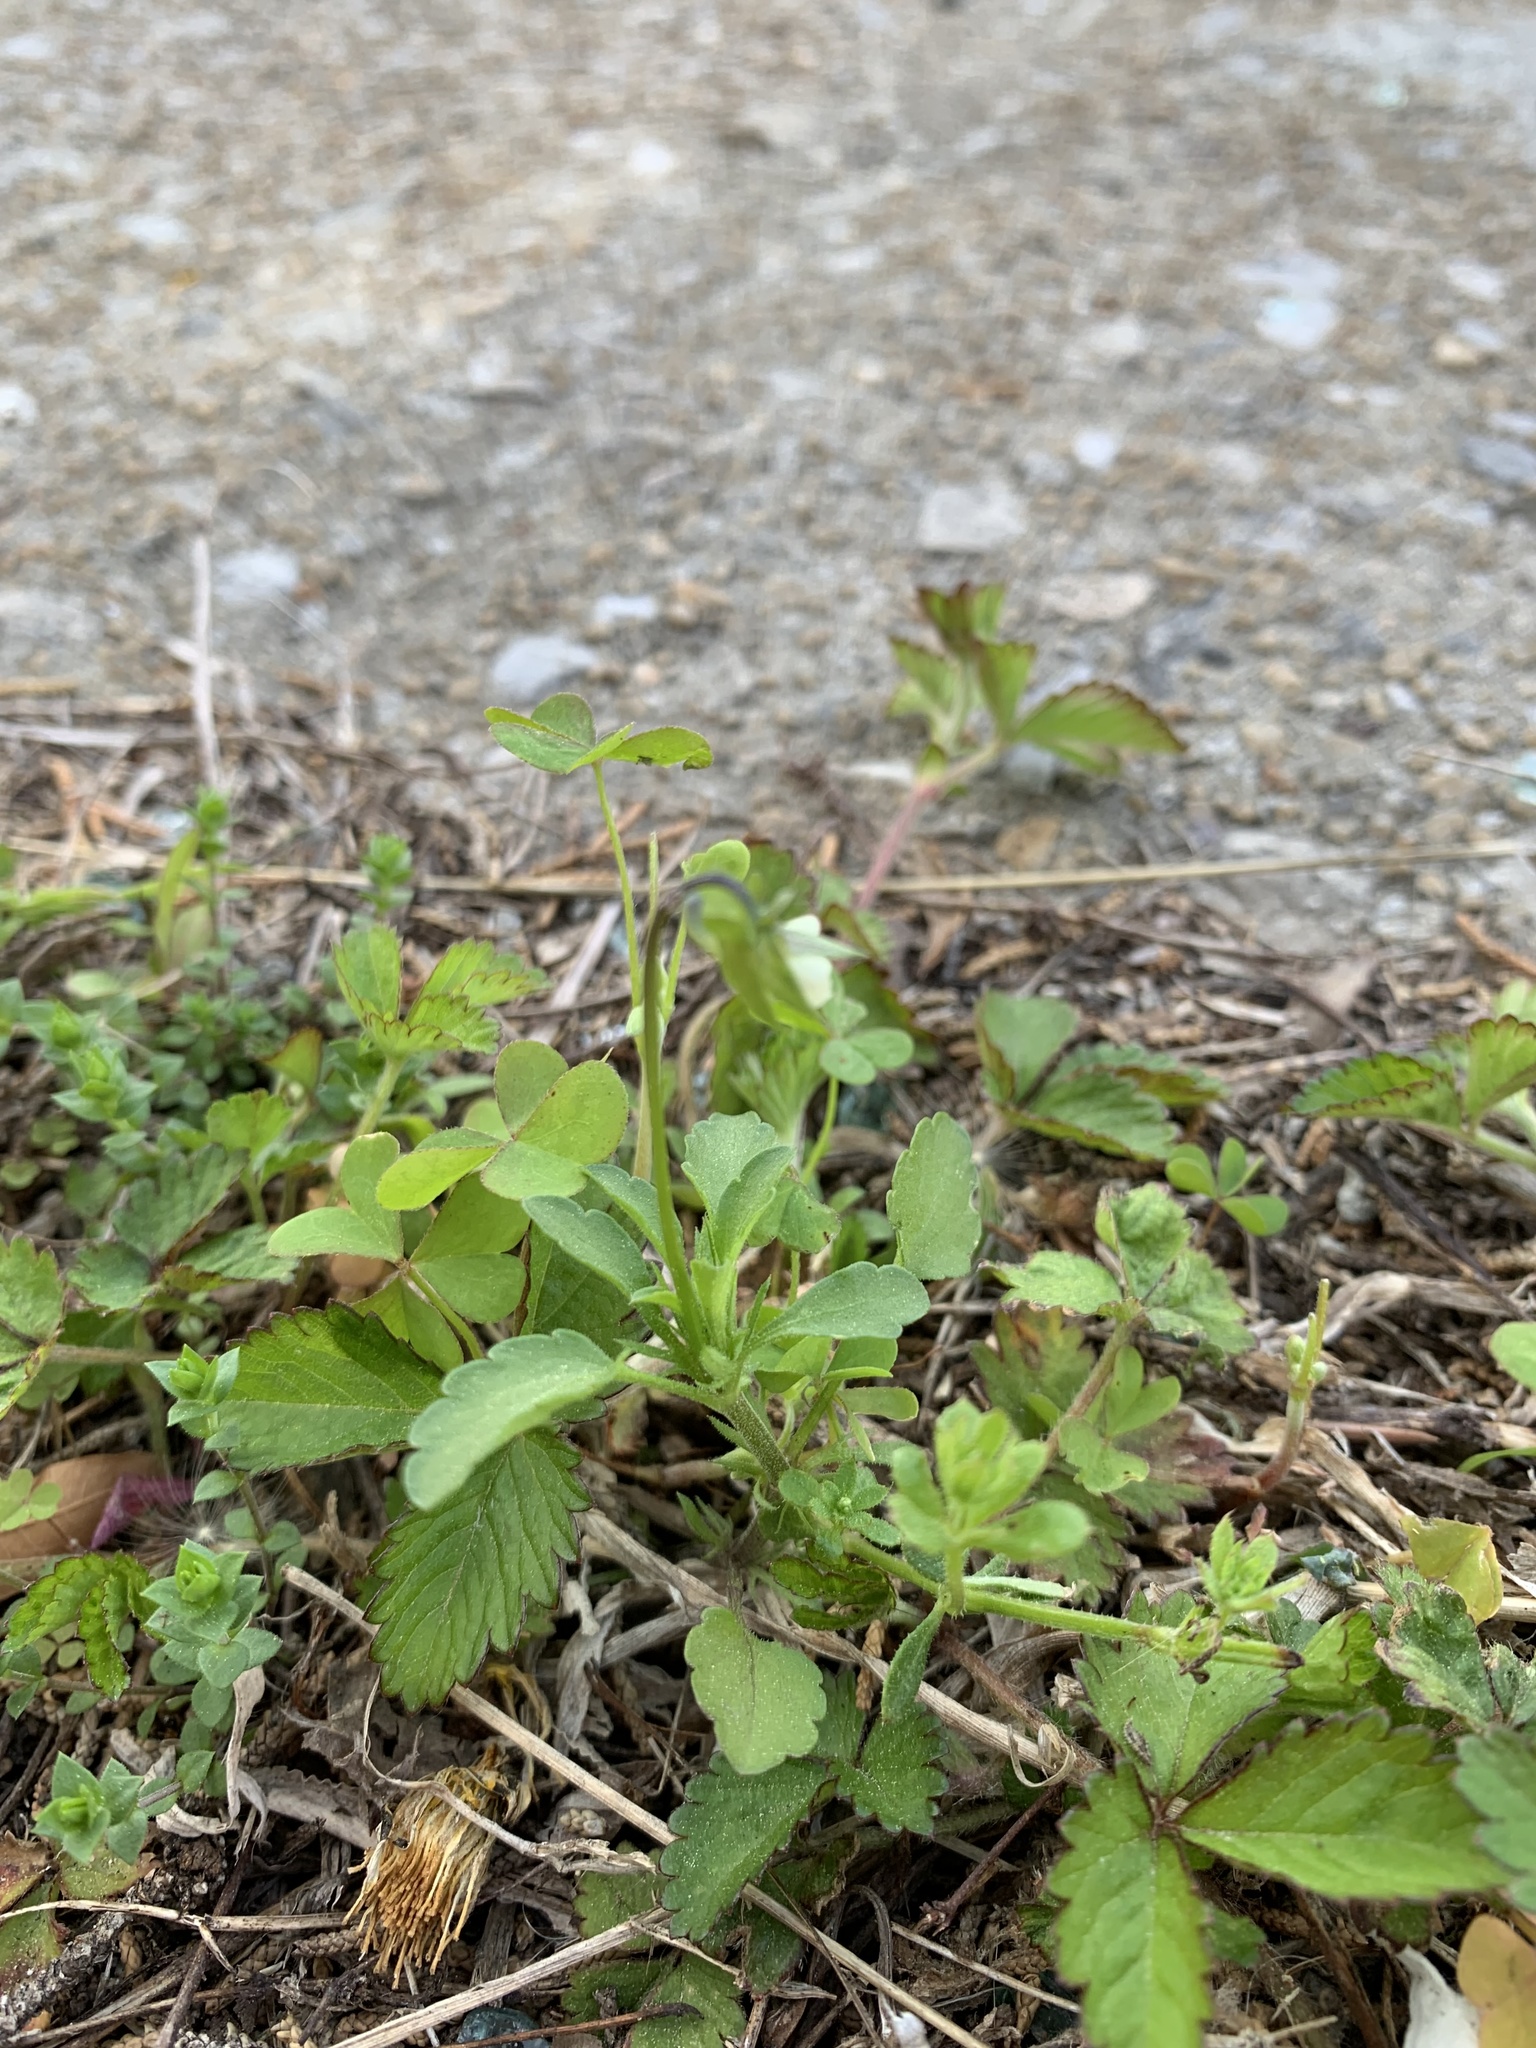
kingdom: Plantae
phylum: Tracheophyta
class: Magnoliopsida
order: Malpighiales
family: Violaceae
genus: Viola
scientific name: Viola arvensis
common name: Field pansy
